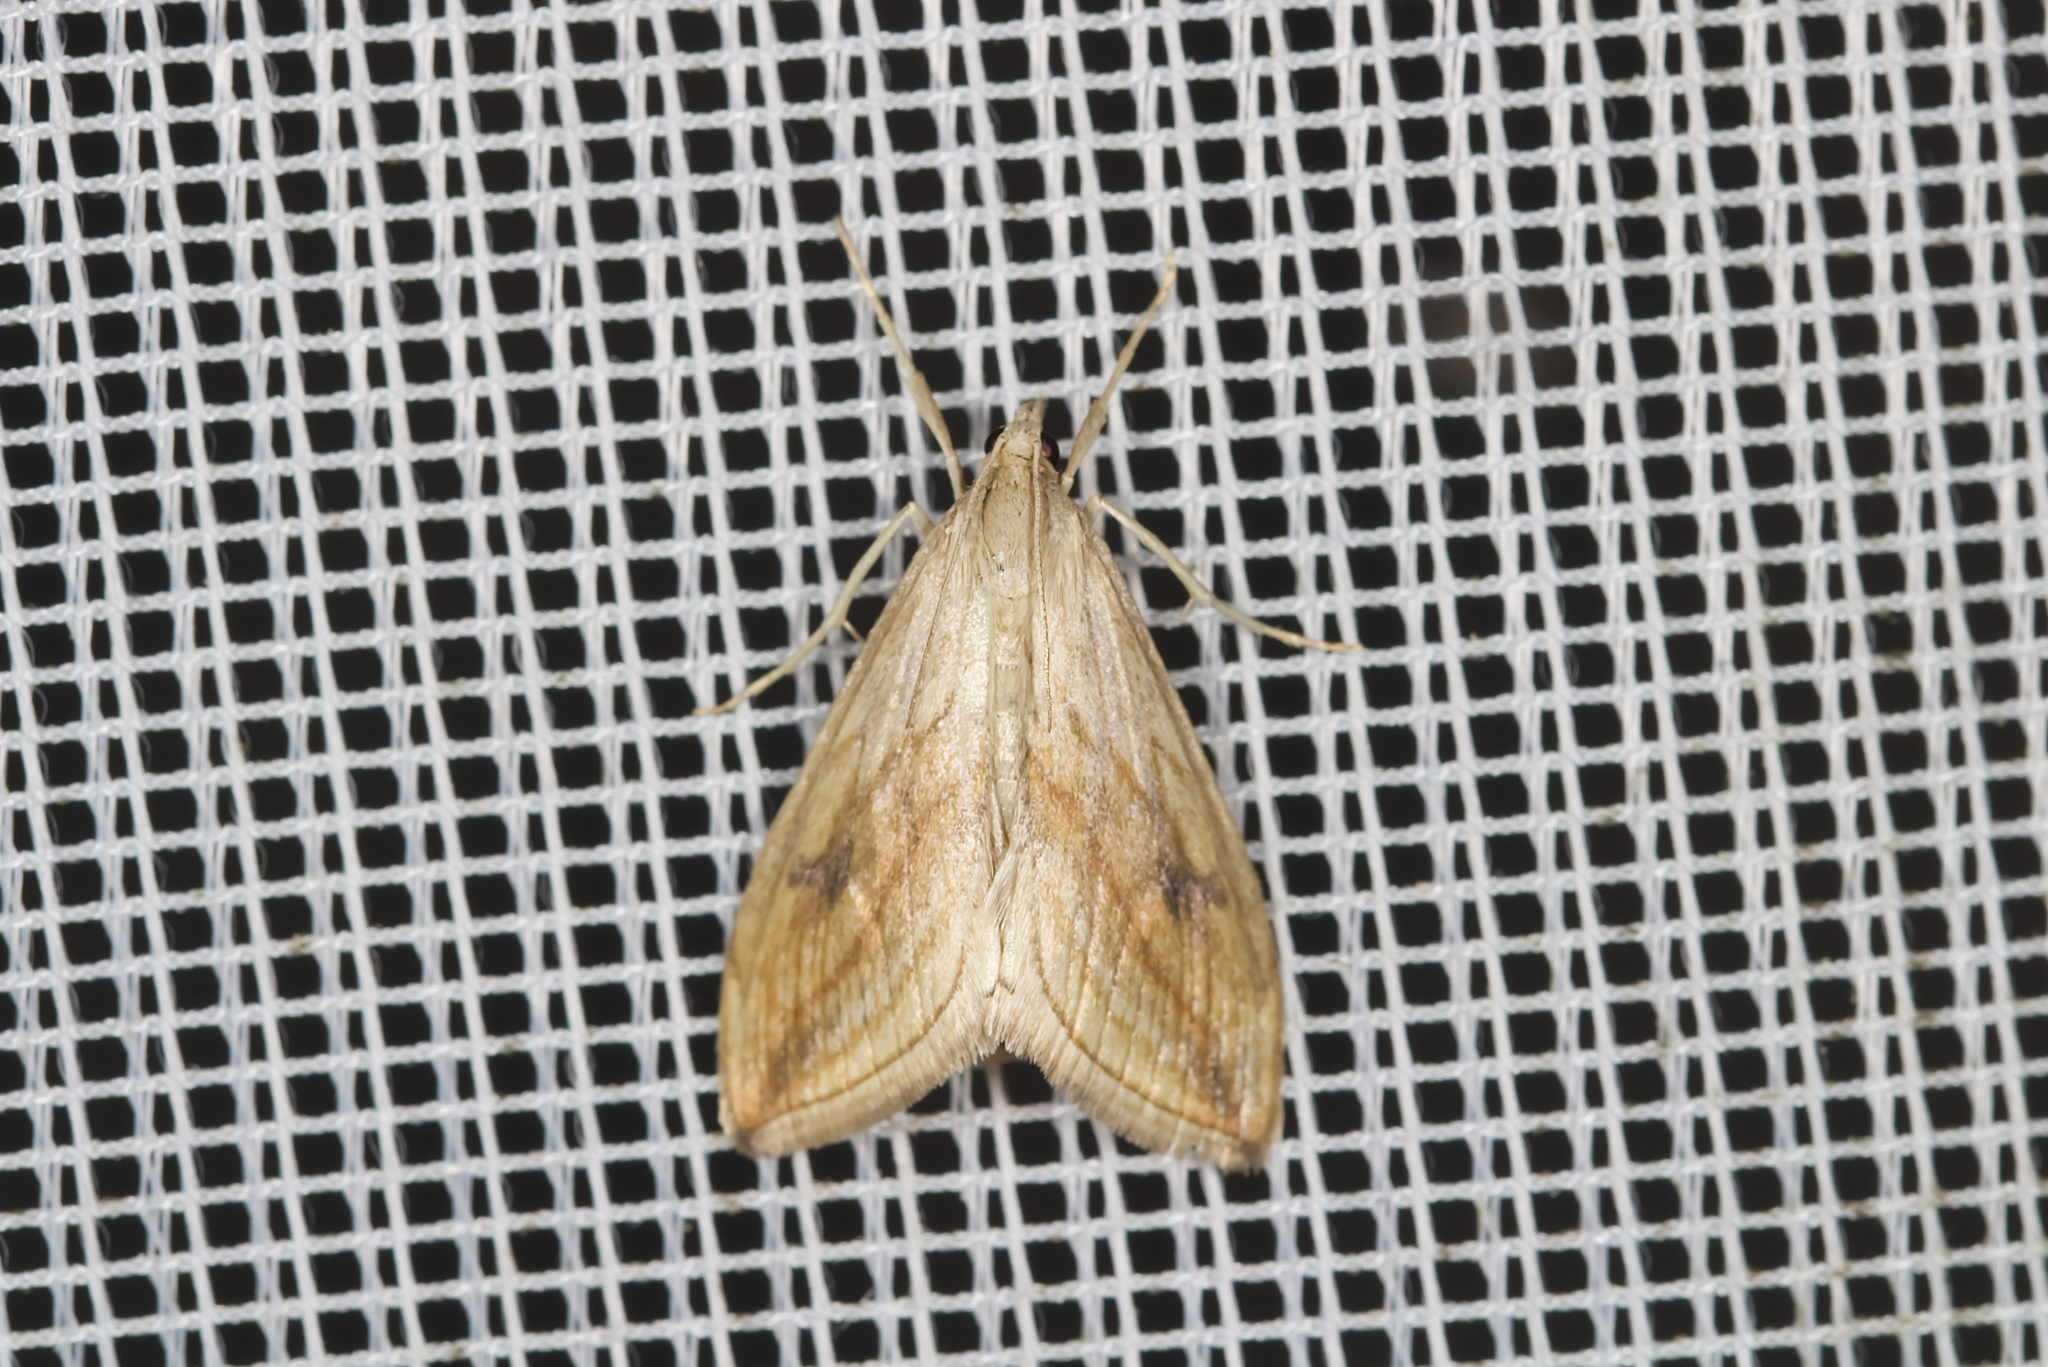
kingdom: Animalia
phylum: Arthropoda
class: Insecta
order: Lepidoptera
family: Crambidae
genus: Evergestis
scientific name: Evergestis forficalis
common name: Garden pebble
